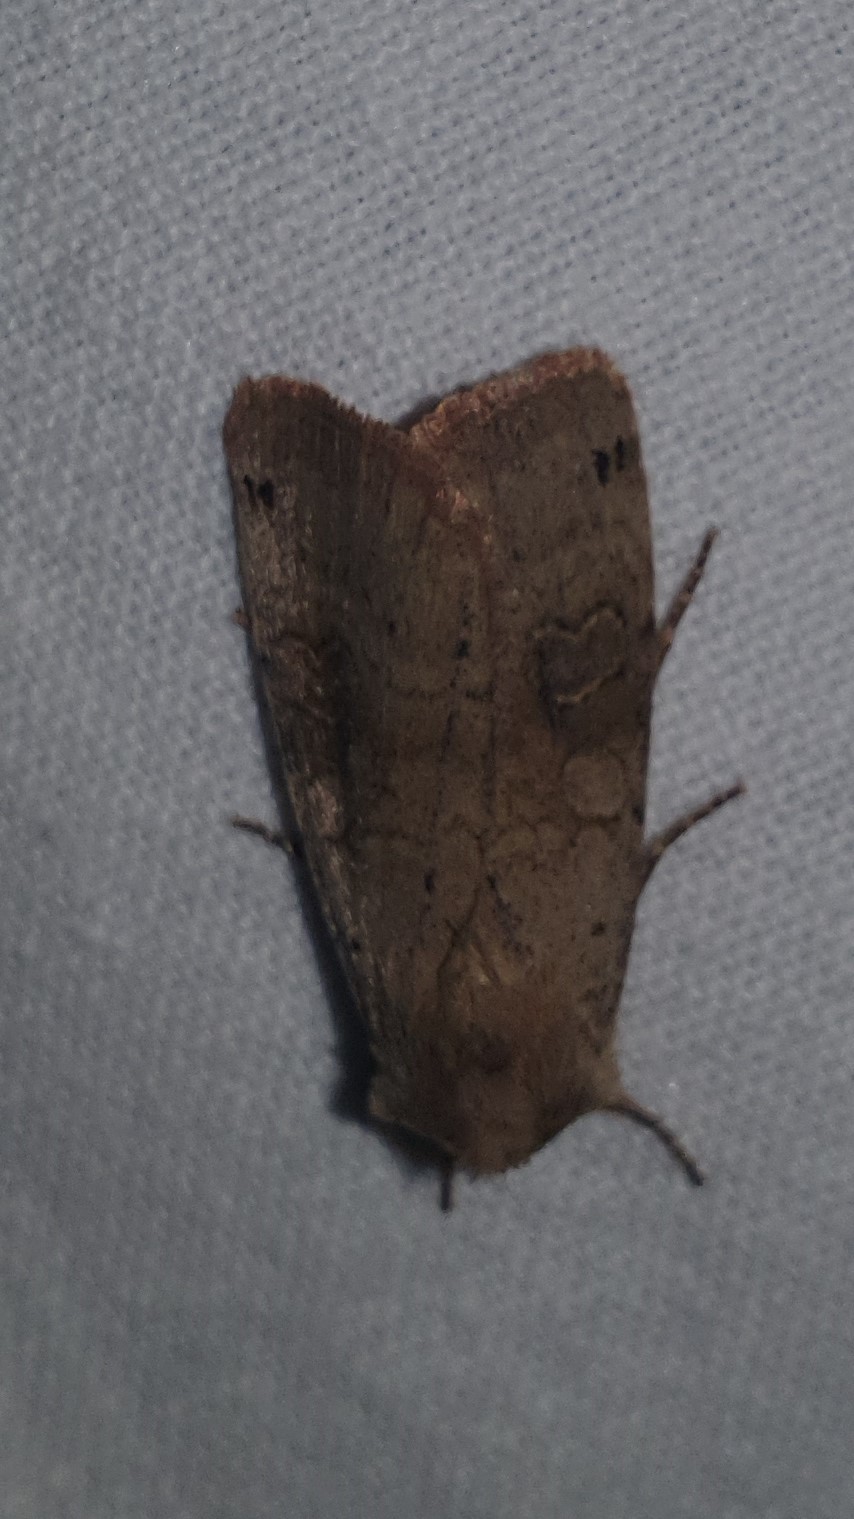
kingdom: Animalia
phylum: Arthropoda
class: Insecta
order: Lepidoptera
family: Noctuidae
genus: Xestia
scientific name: Xestia baja
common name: Dotted clay
